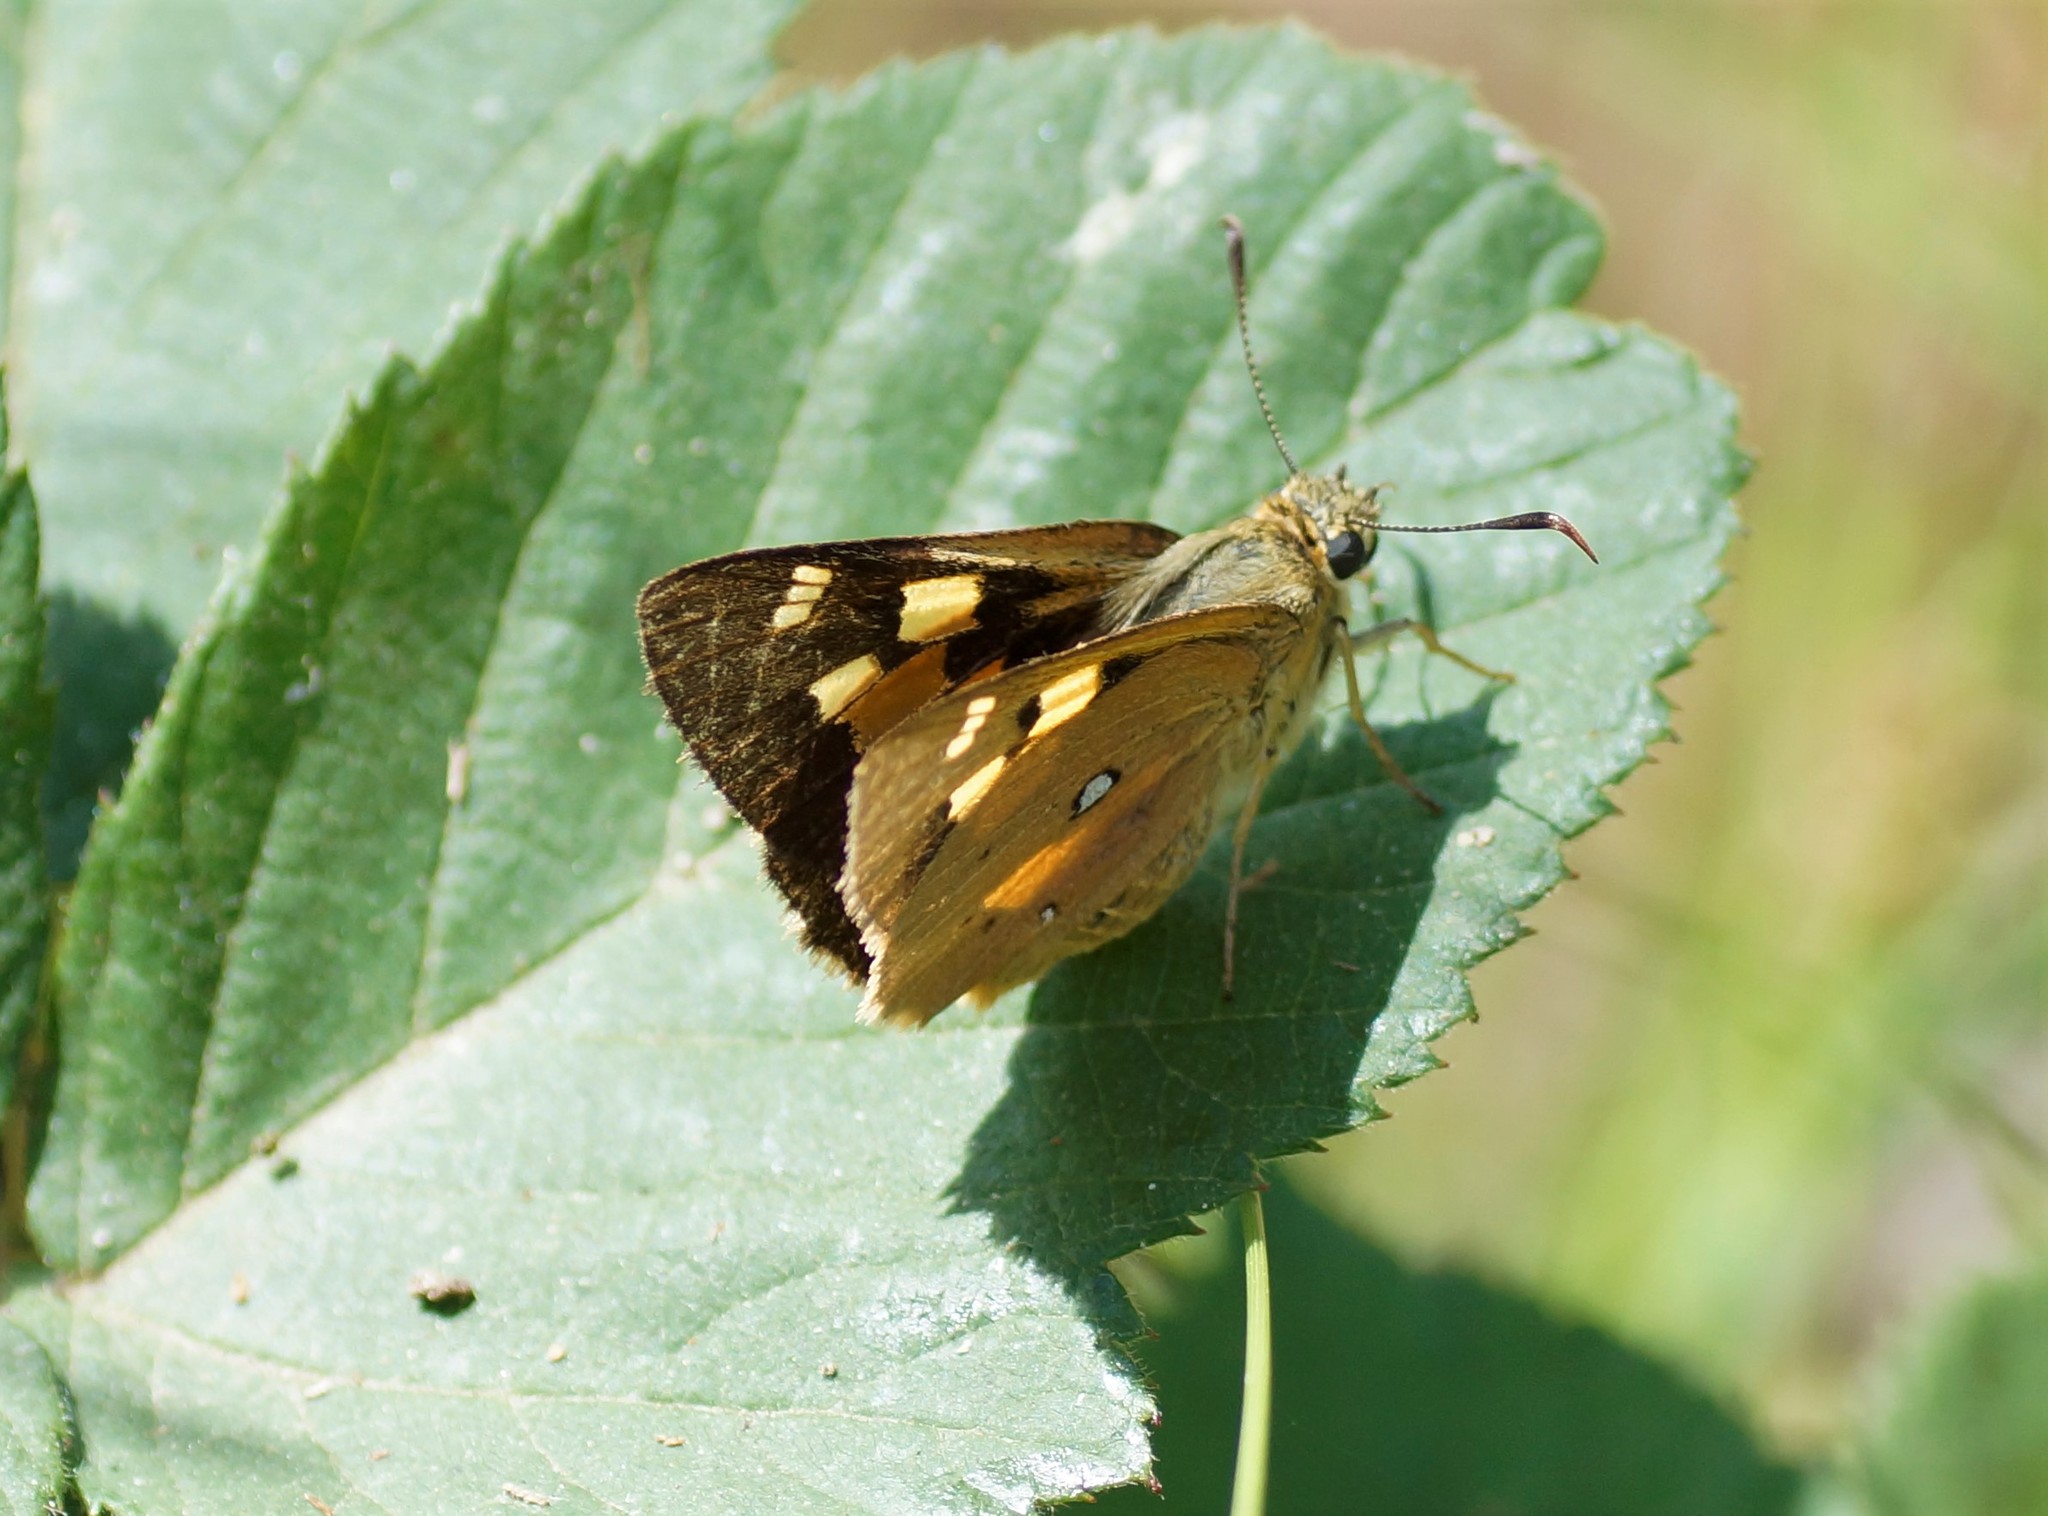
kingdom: Animalia
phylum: Arthropoda
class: Insecta
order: Lepidoptera
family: Hesperiidae
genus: Trapezites
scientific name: Trapezites eliena
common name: Eliena skipper
